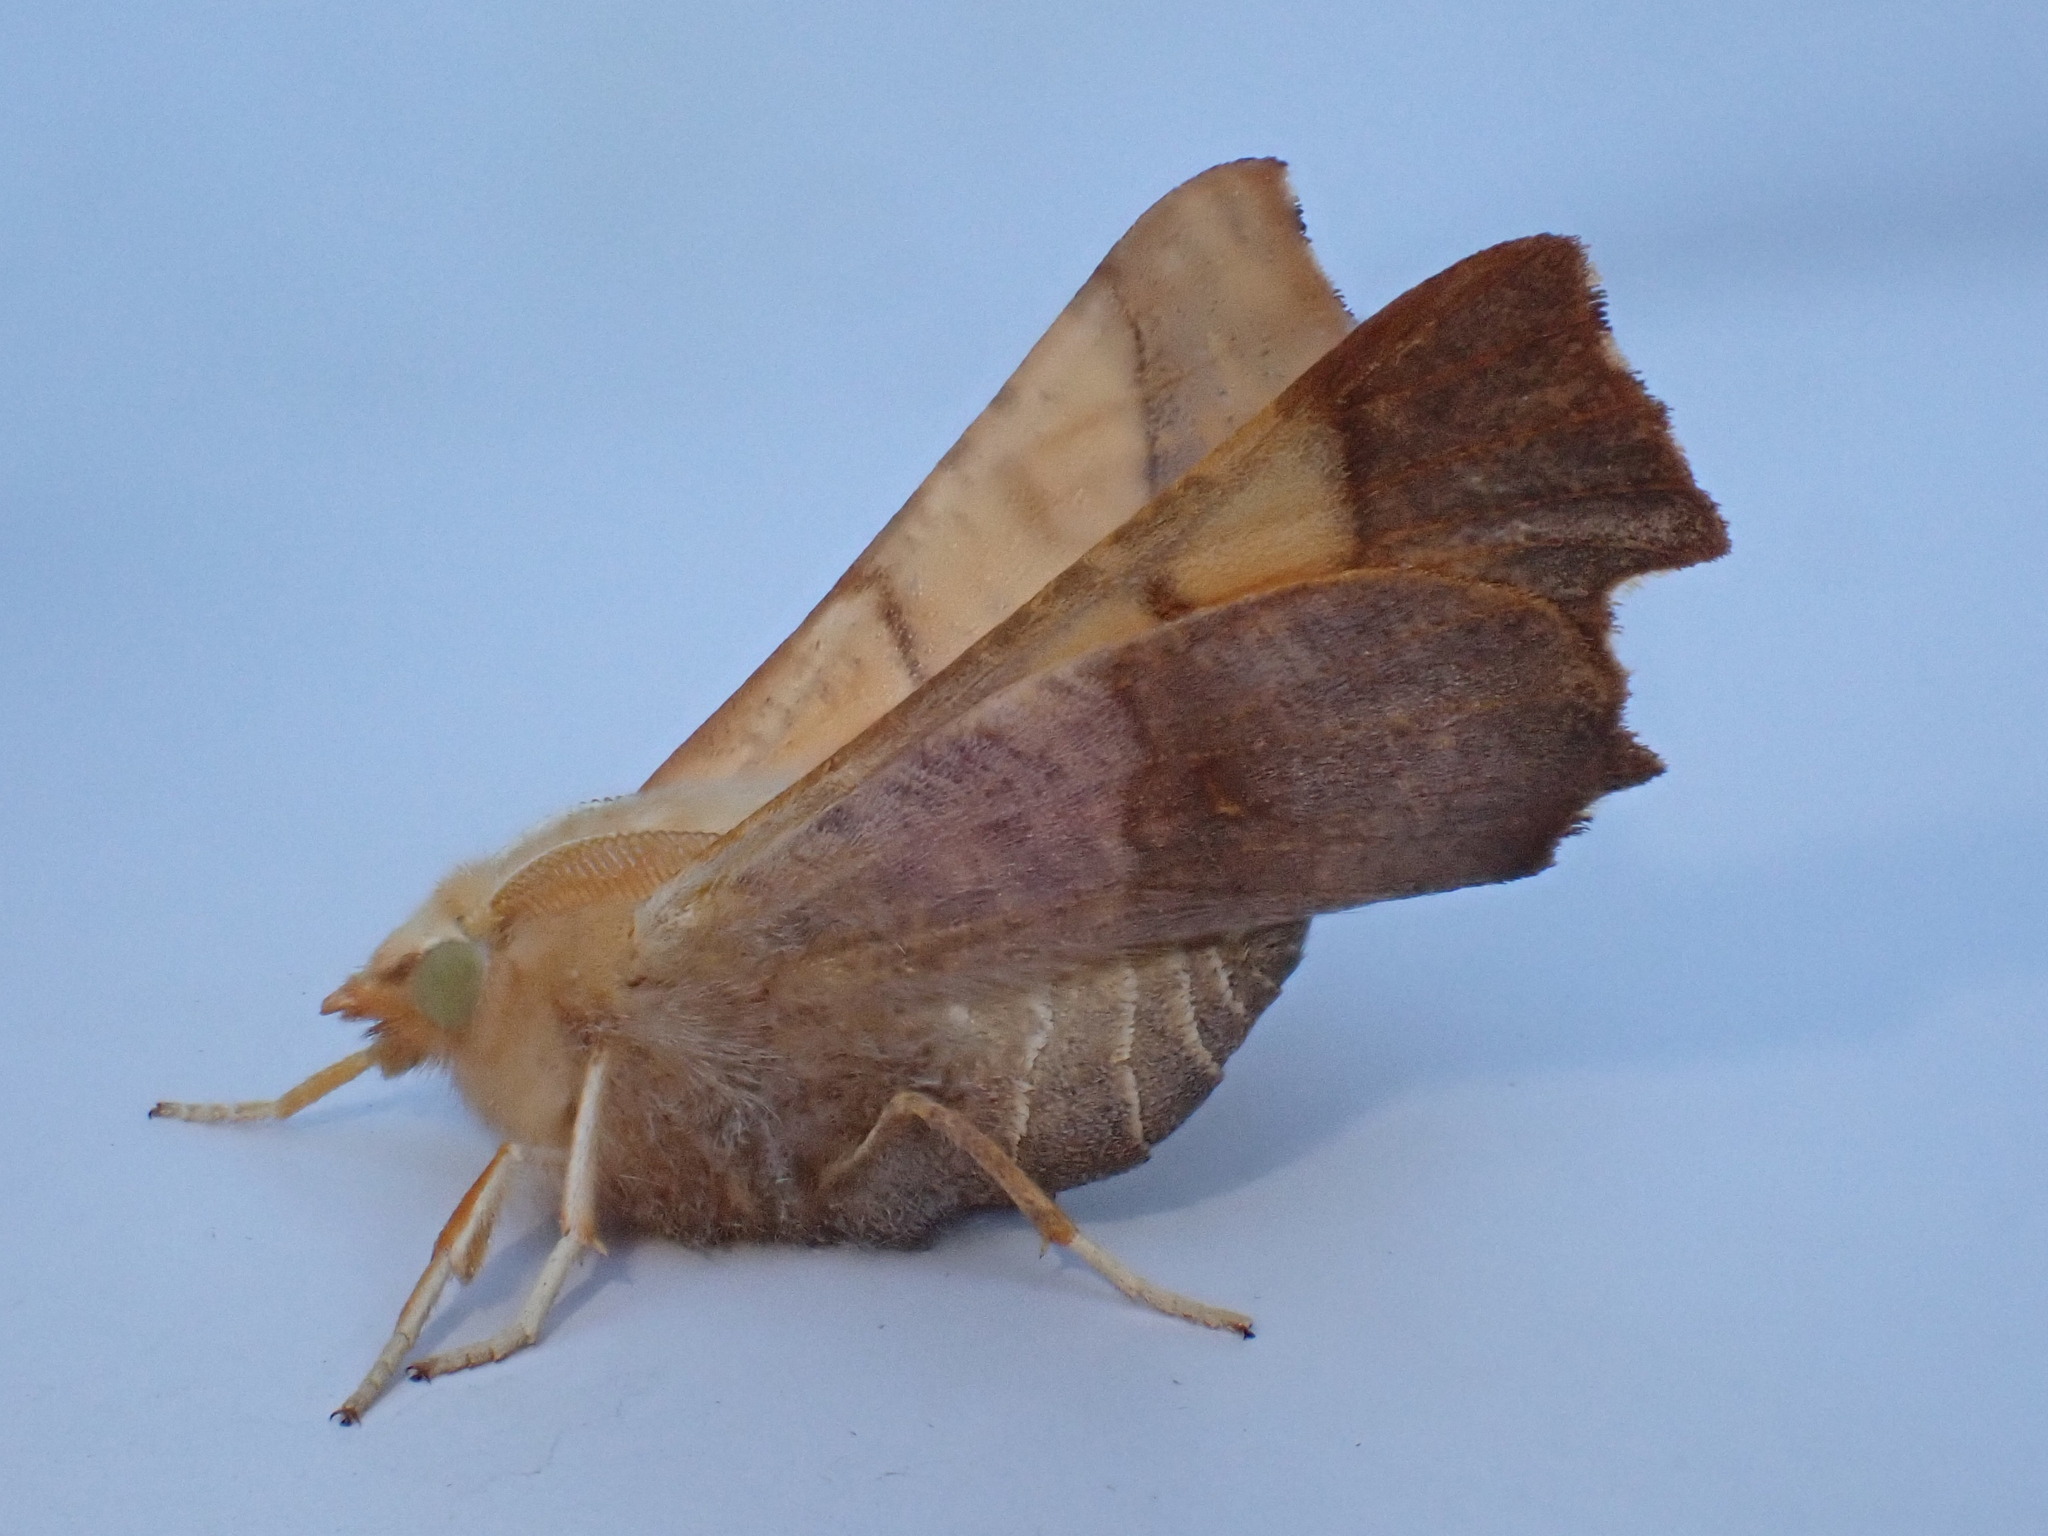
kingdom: Animalia
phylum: Arthropoda
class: Insecta
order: Lepidoptera
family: Geometridae
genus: Ennomos
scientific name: Ennomos fuscantaria
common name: Dusky thorn
